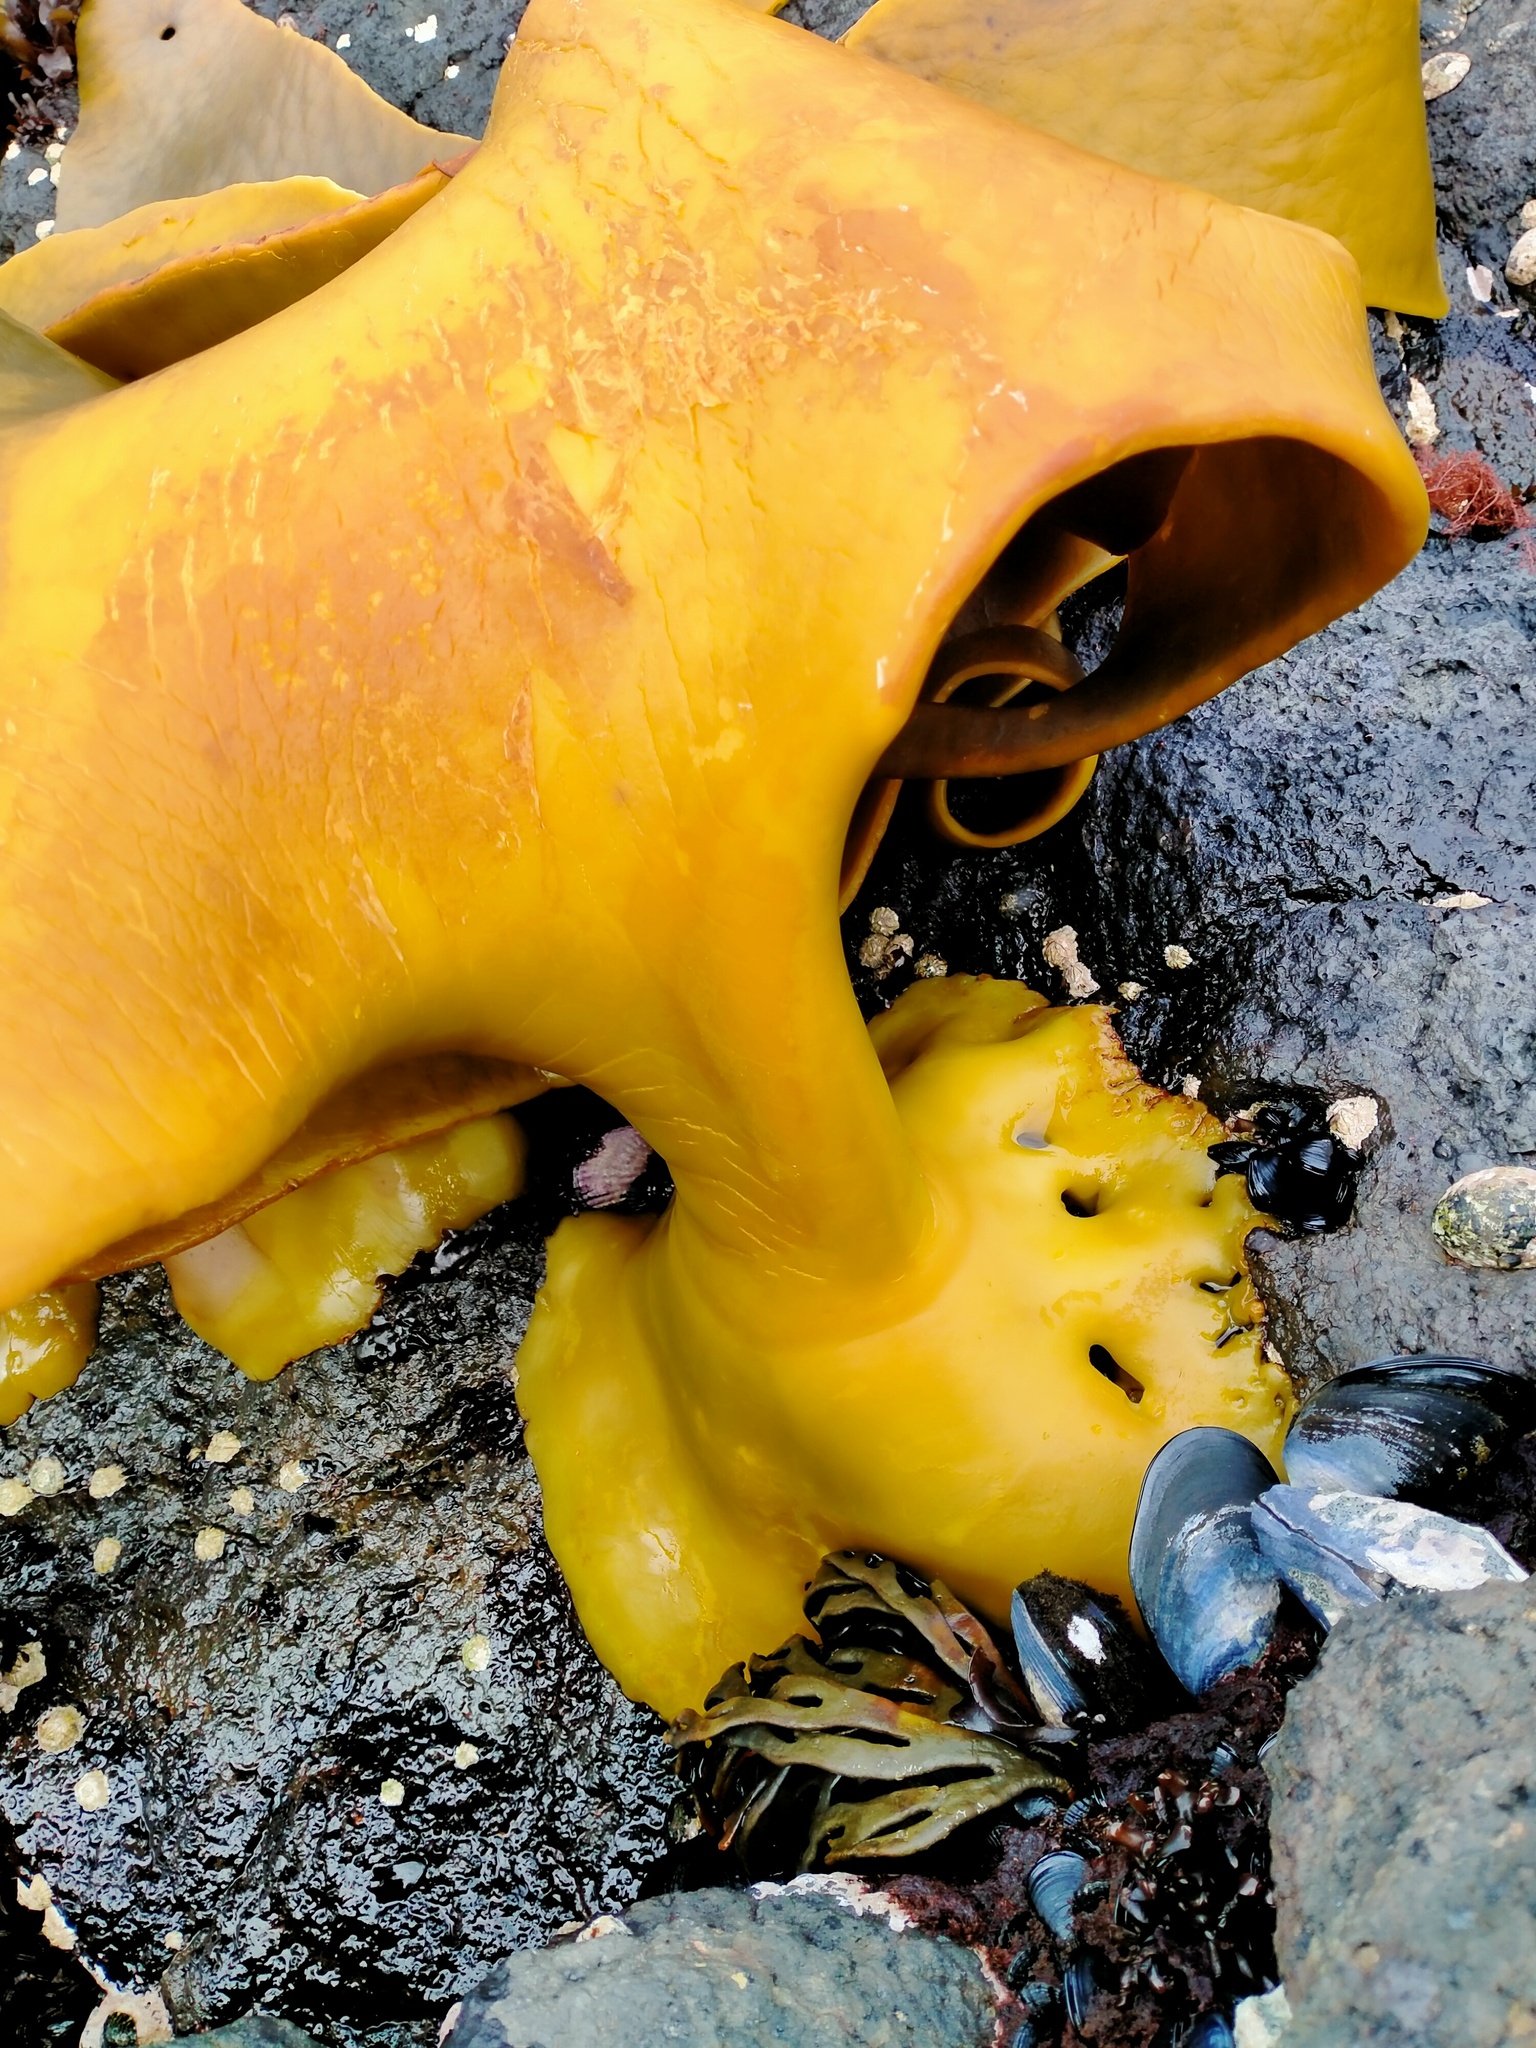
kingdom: Chromista
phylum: Ochrophyta
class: Phaeophyceae
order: Fucales
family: Durvillaeaceae
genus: Durvillaea
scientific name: Durvillaea poha
